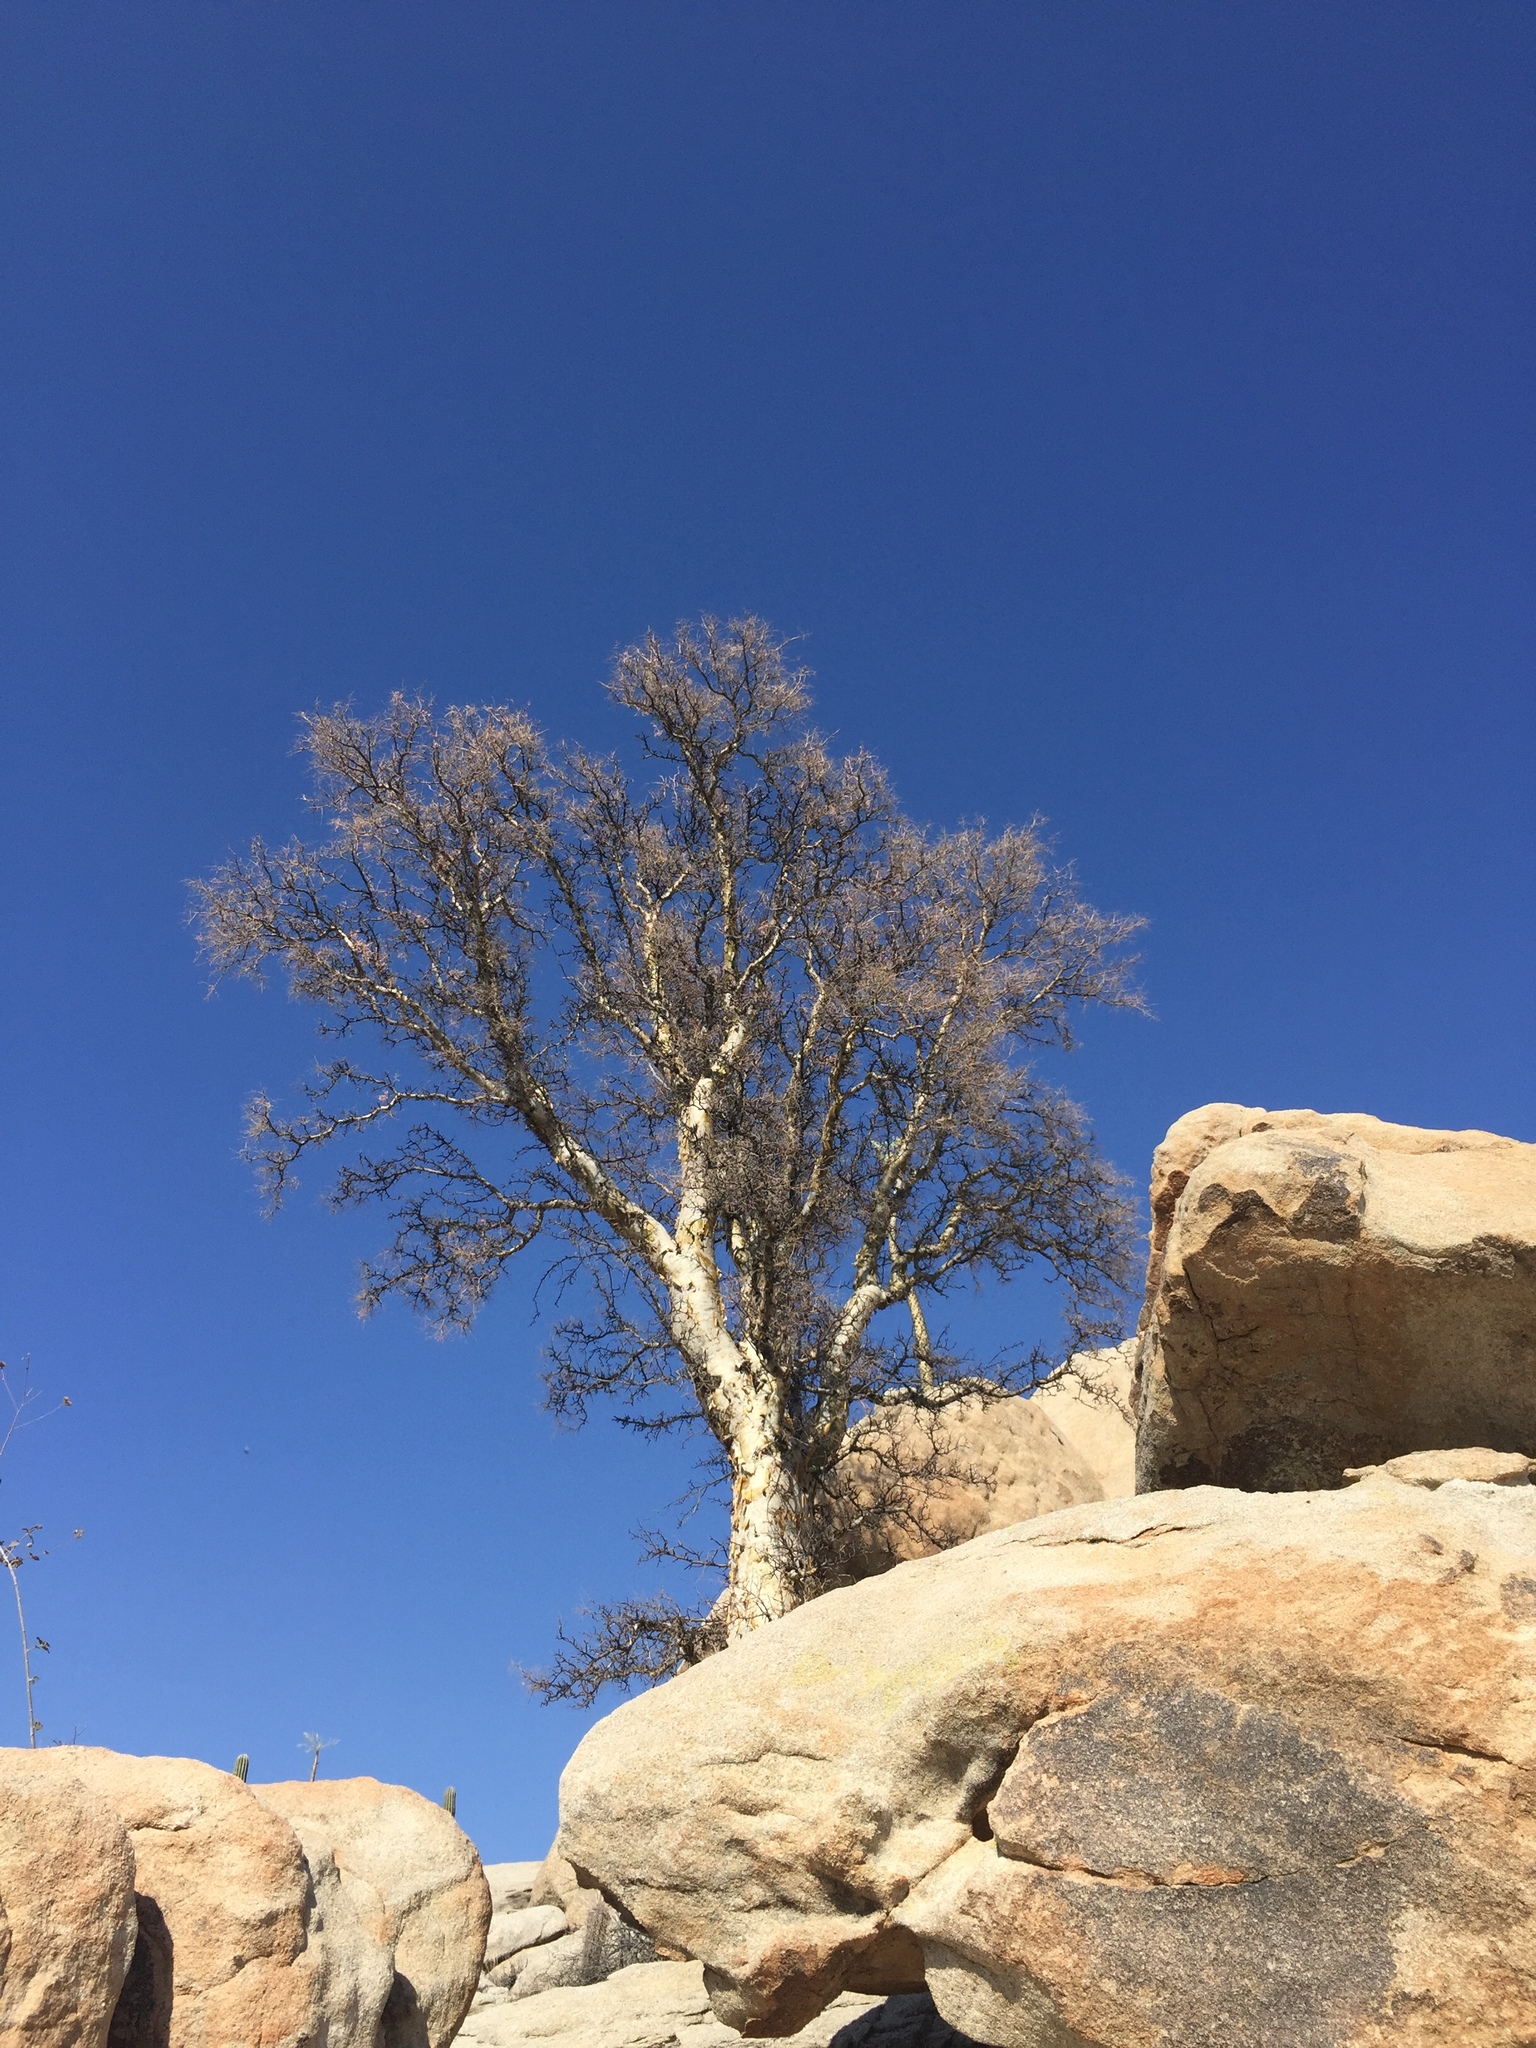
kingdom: Plantae
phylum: Tracheophyta
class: Magnoliopsida
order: Sapindales
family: Anacardiaceae
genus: Pachycormus
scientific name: Pachycormus discolor
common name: Succulent elephant trees
